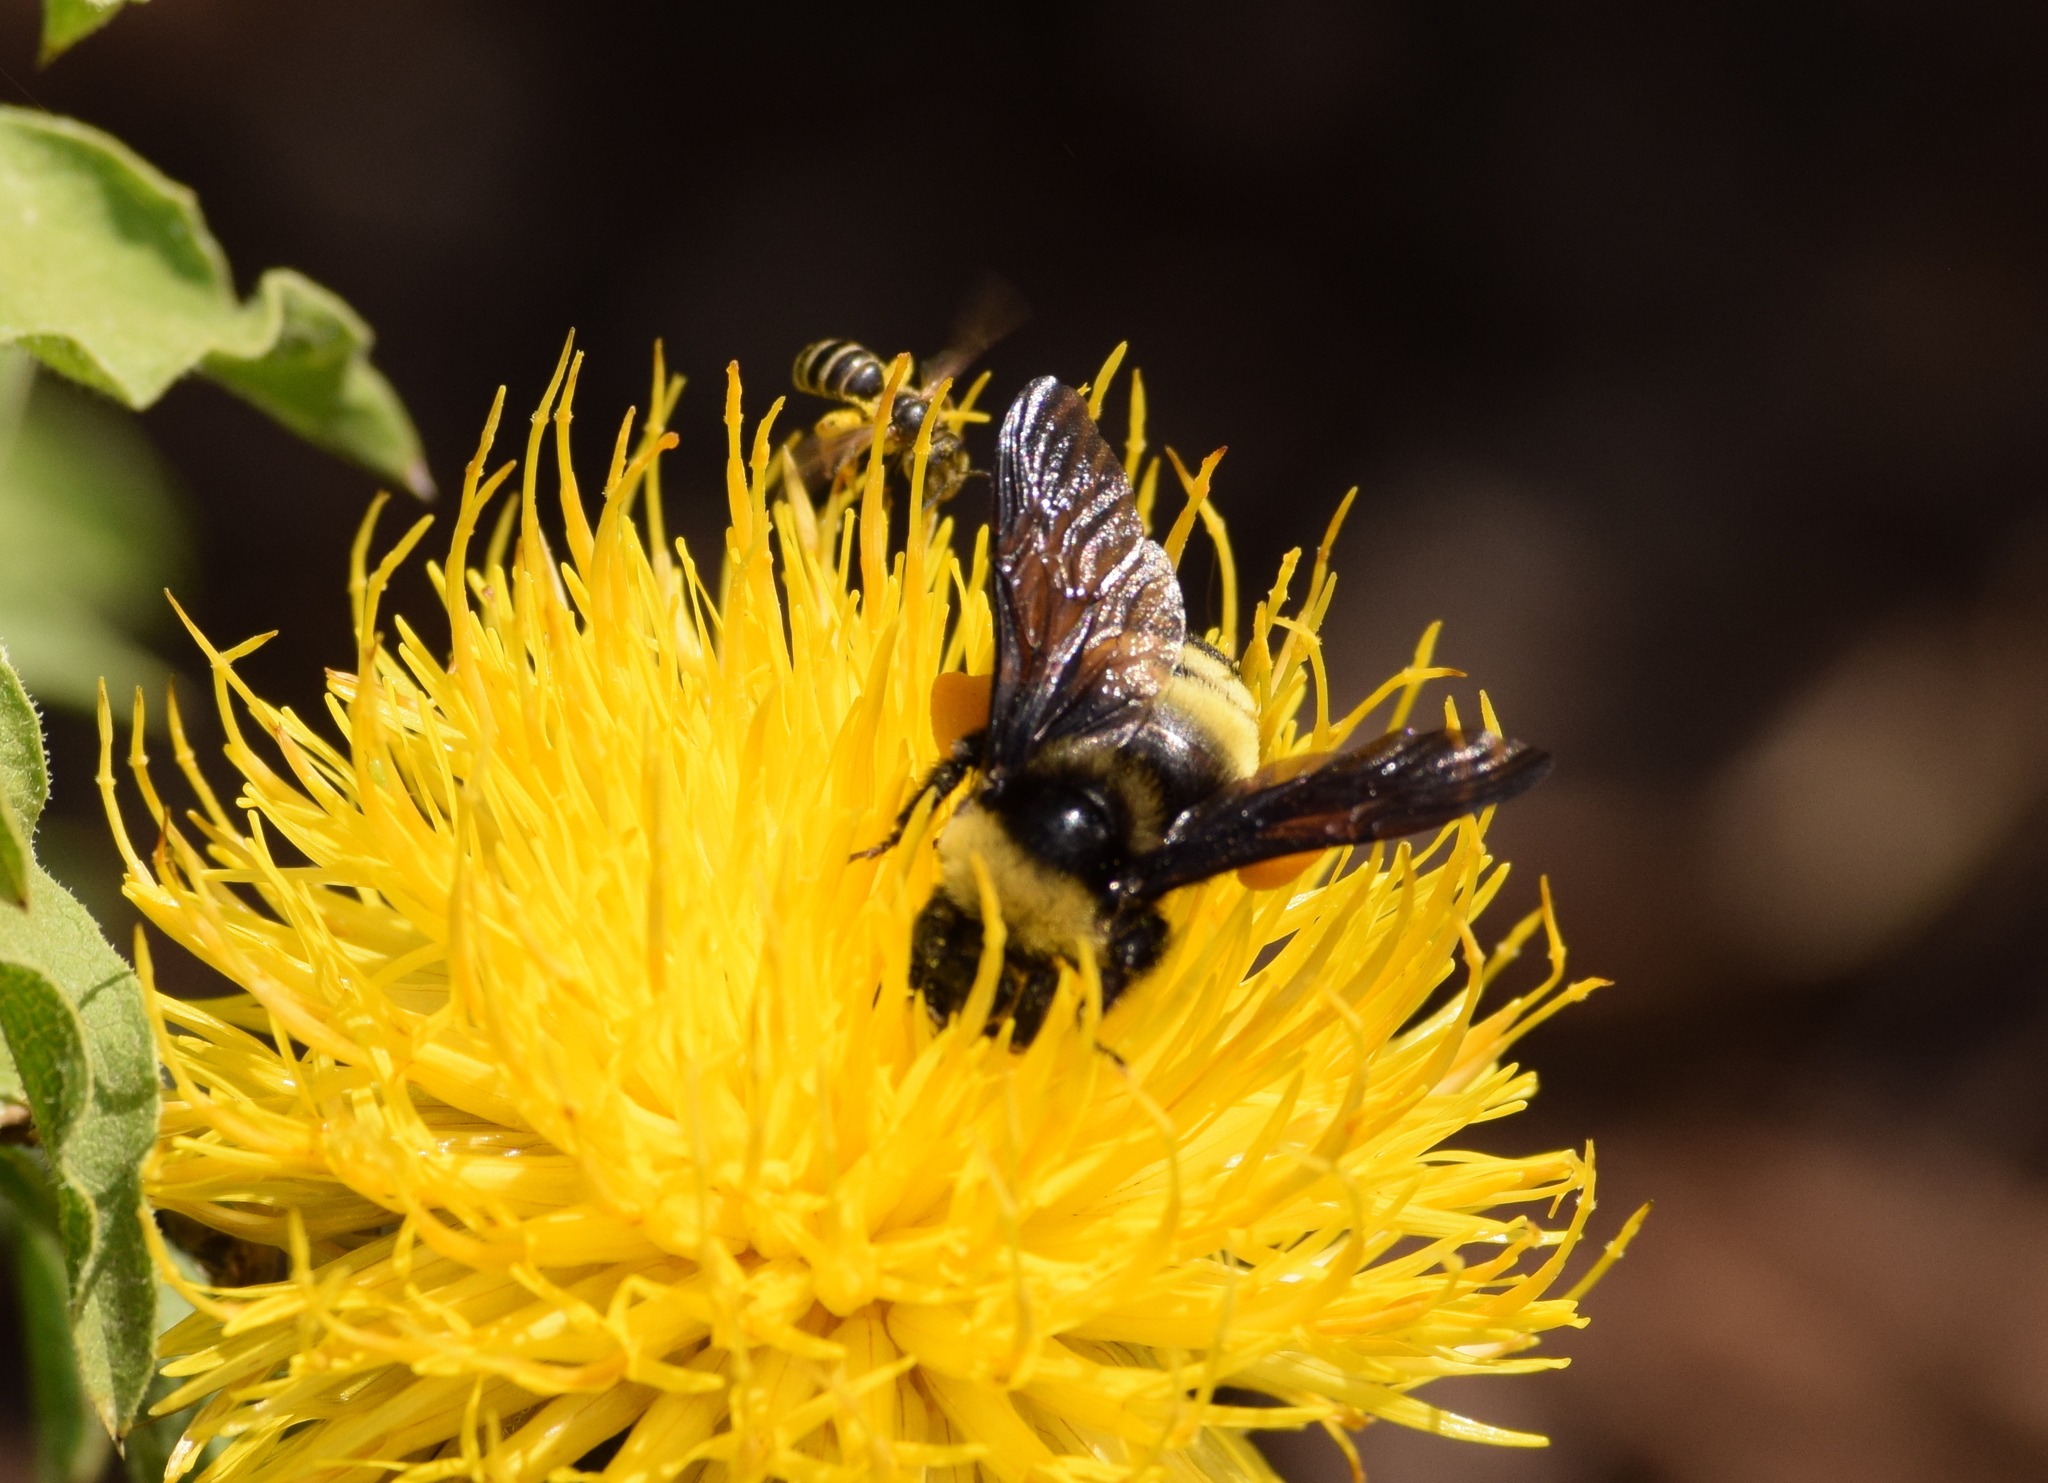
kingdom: Animalia
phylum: Arthropoda
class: Insecta
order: Hymenoptera
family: Apidae
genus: Bombus
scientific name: Bombus auricomus
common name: Black and gold bumble bee
